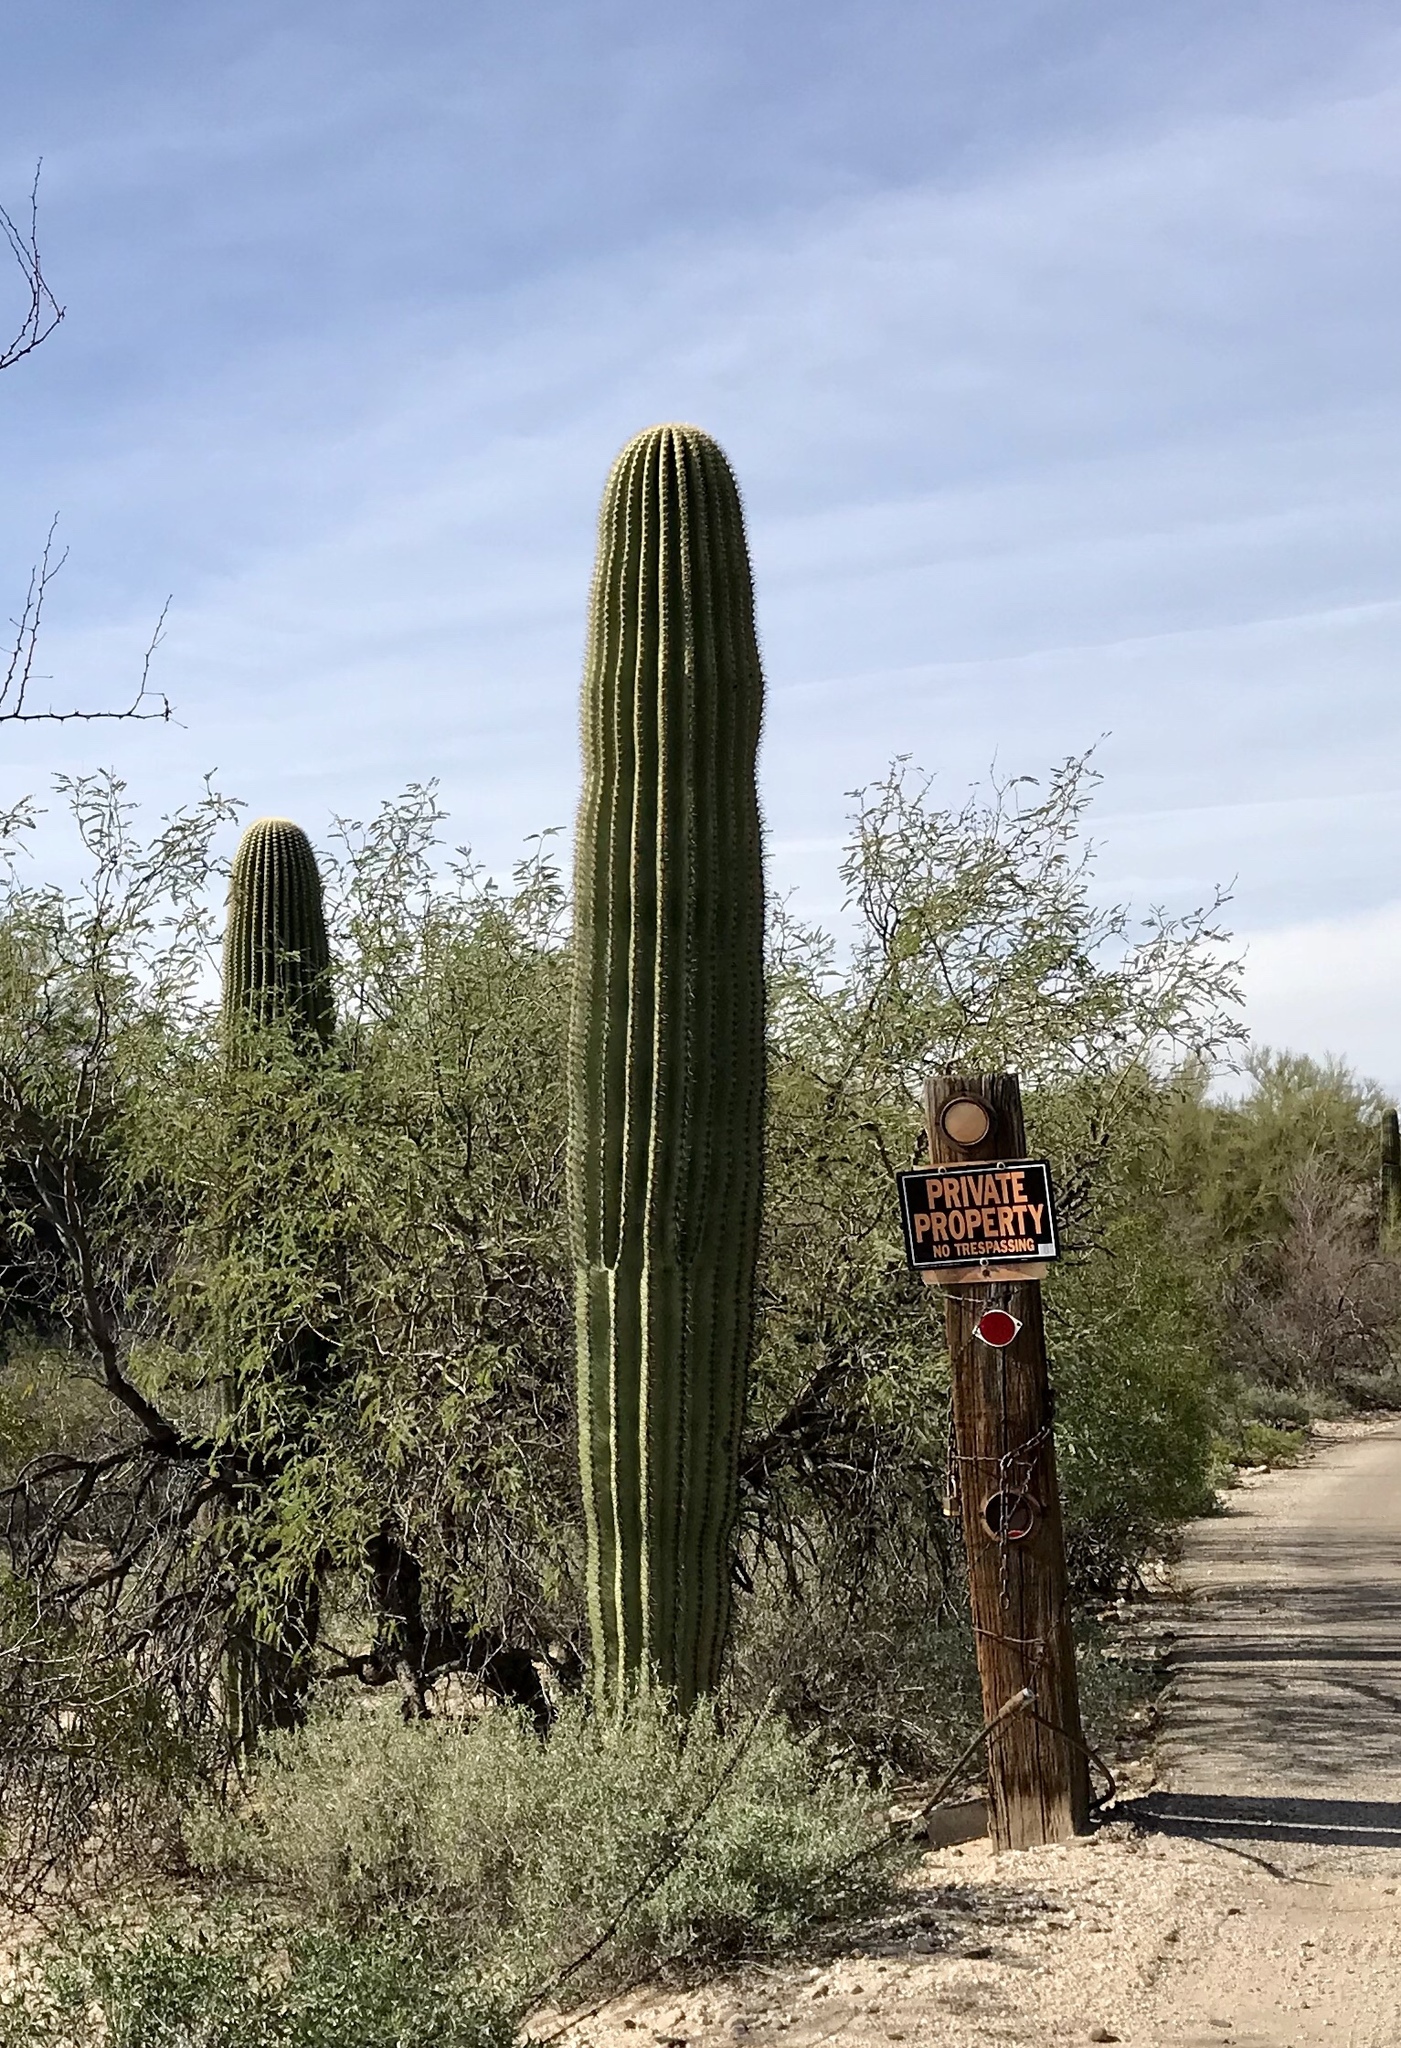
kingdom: Plantae
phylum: Tracheophyta
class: Magnoliopsida
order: Caryophyllales
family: Cactaceae
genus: Carnegiea
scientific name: Carnegiea gigantea
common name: Saguaro
